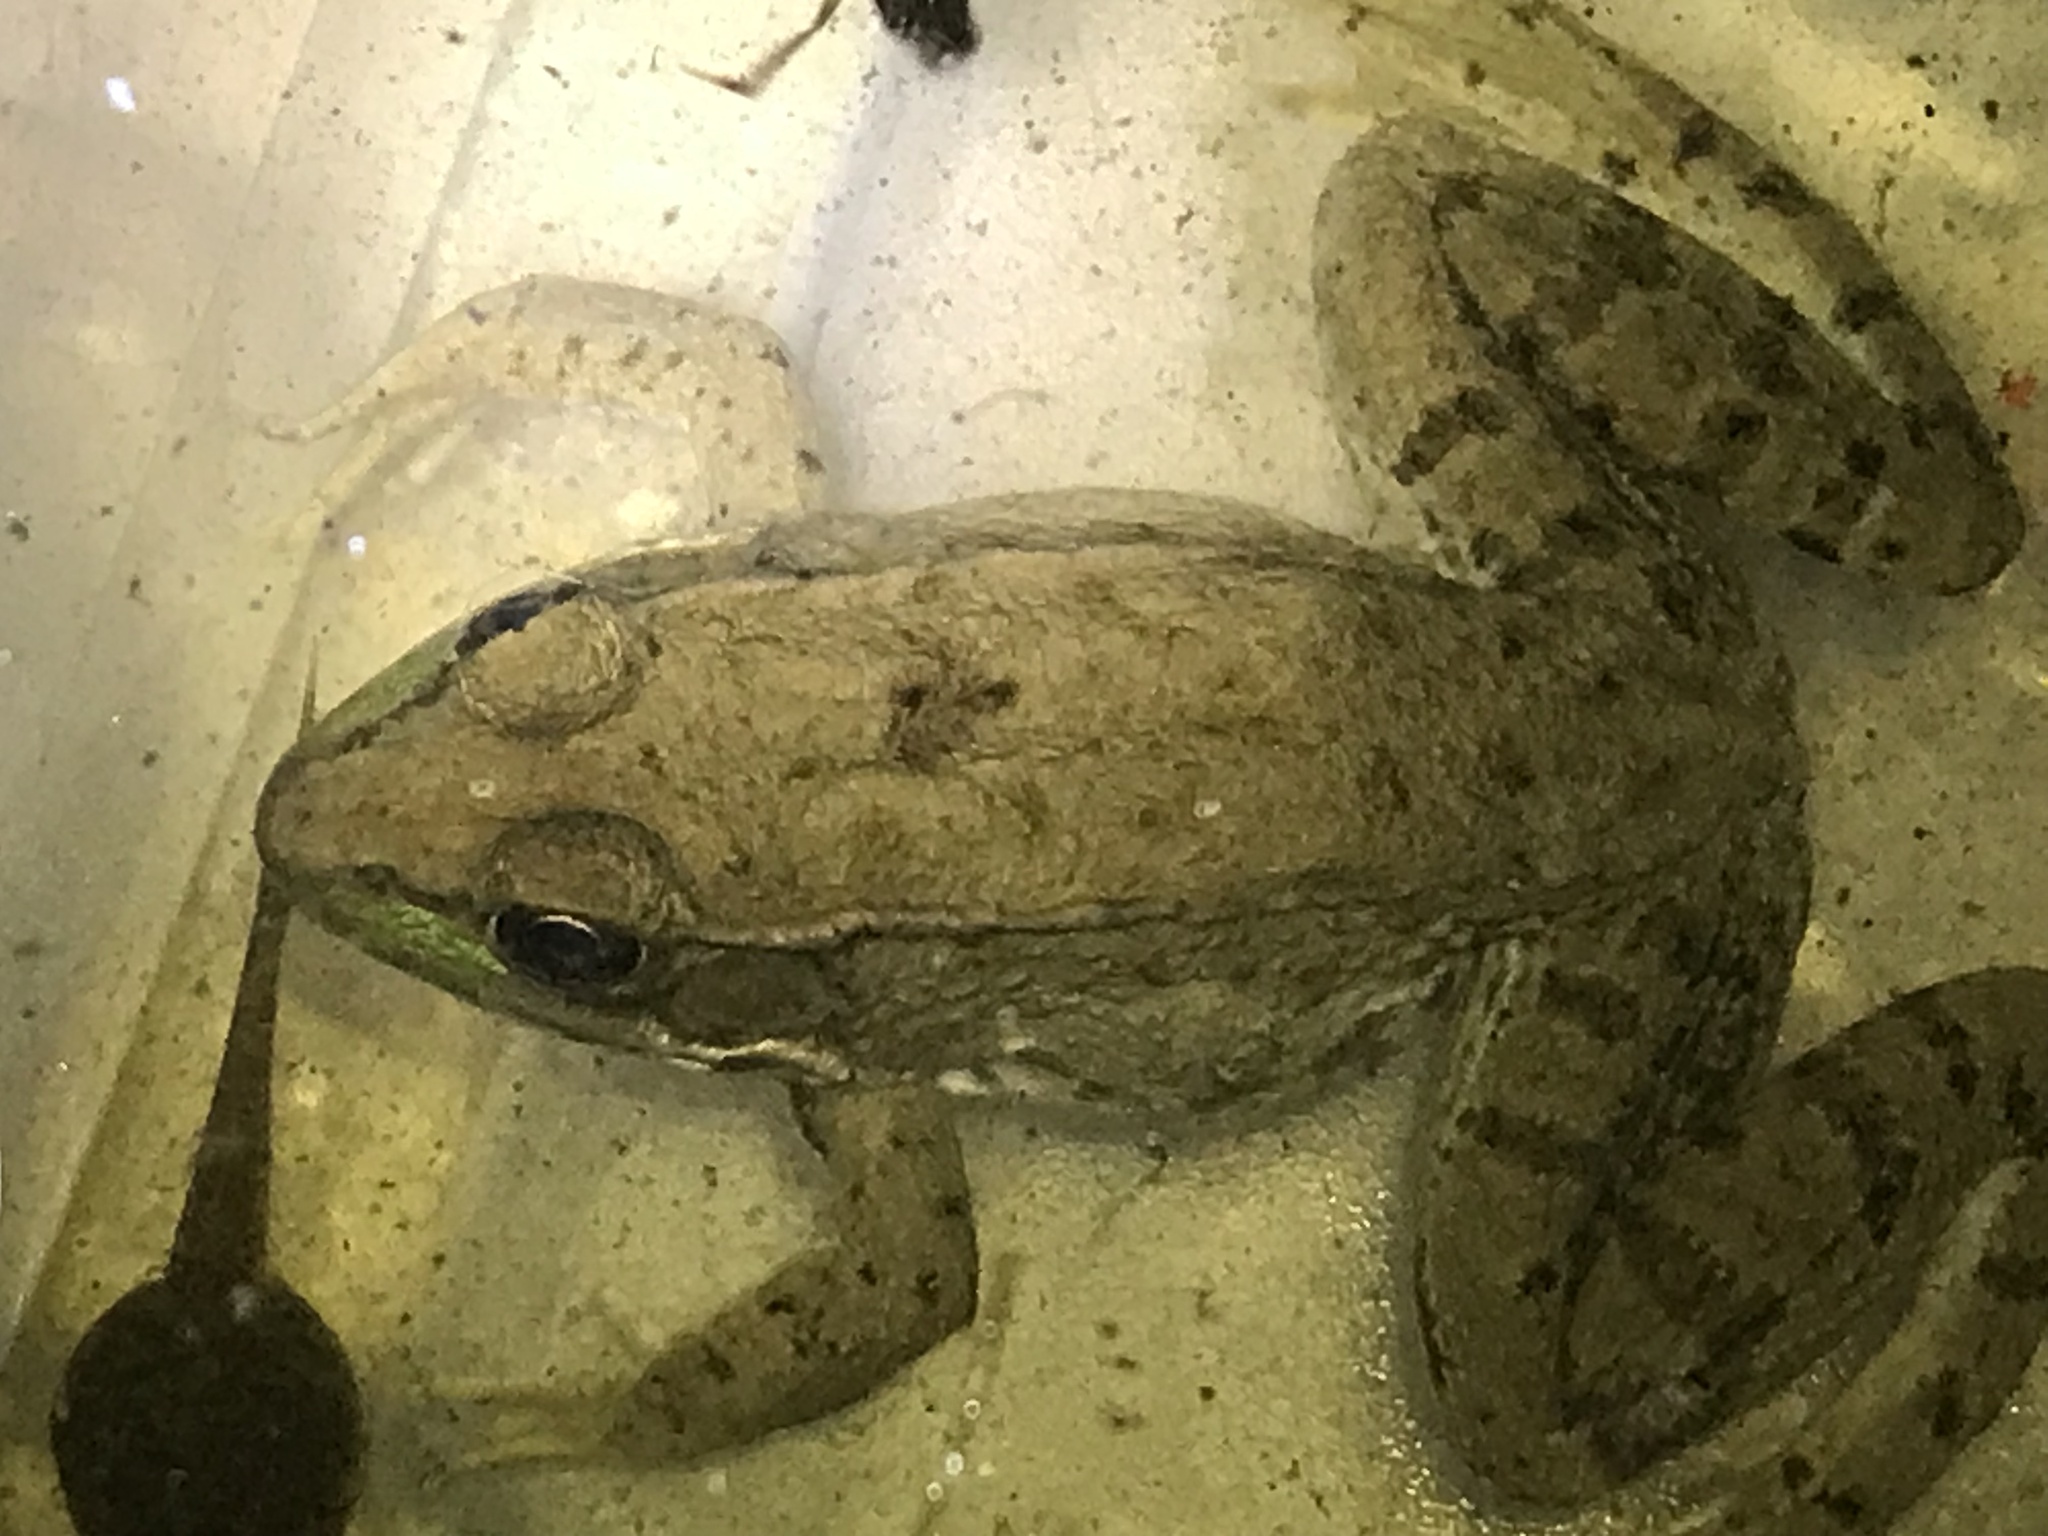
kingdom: Animalia
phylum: Chordata
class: Amphibia
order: Anura
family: Ranidae
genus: Lithobates
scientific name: Lithobates clamitans
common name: Green frog
